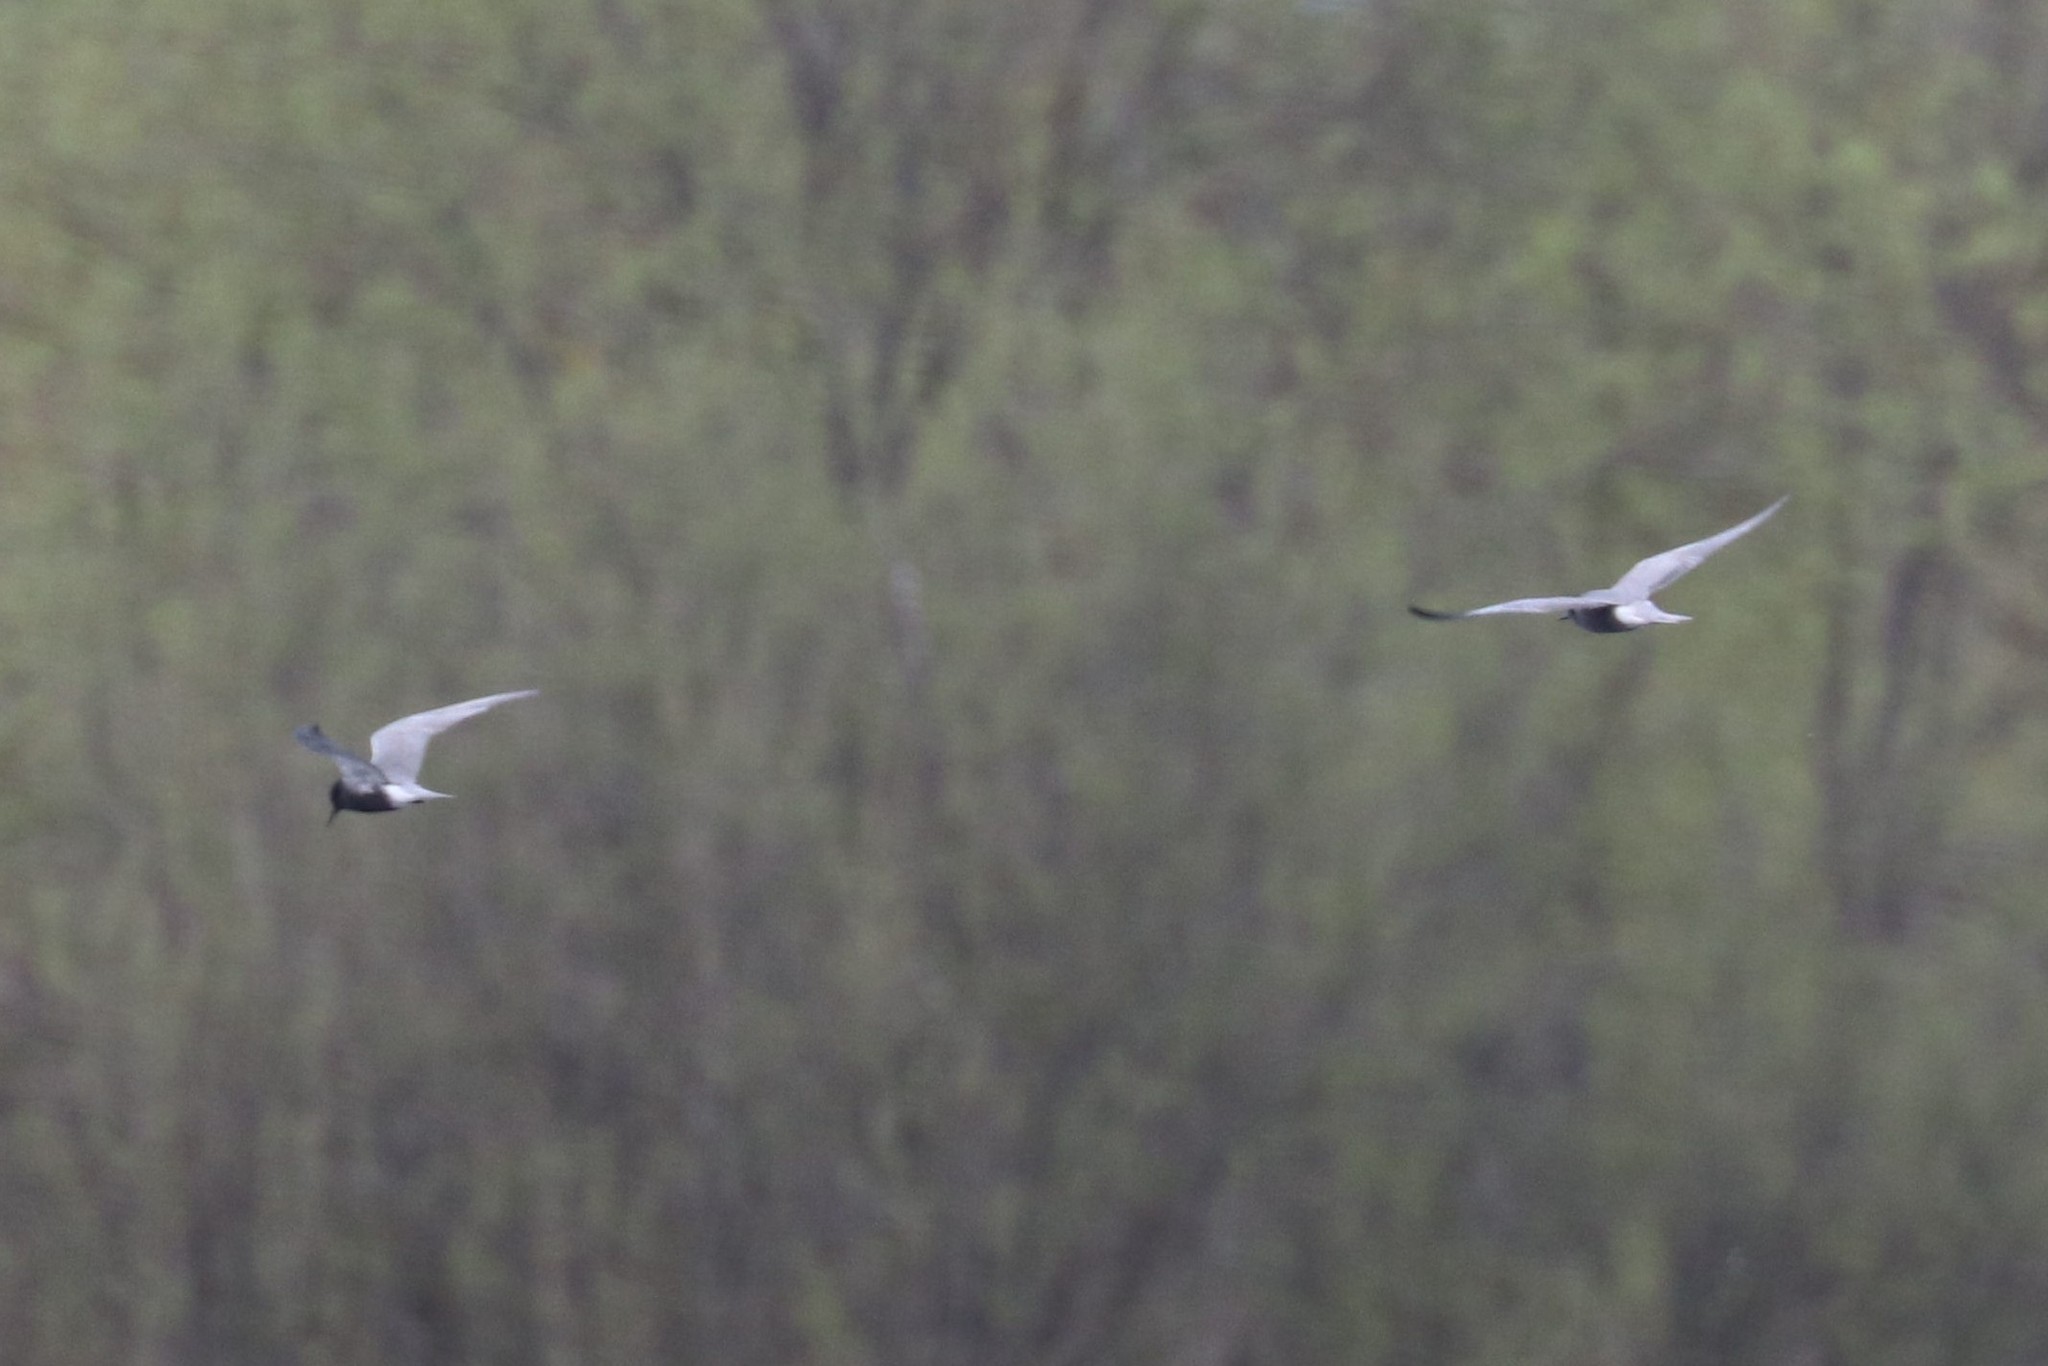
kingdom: Animalia
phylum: Chordata
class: Aves
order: Charadriiformes
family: Laridae
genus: Chlidonias
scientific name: Chlidonias niger
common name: Black tern
